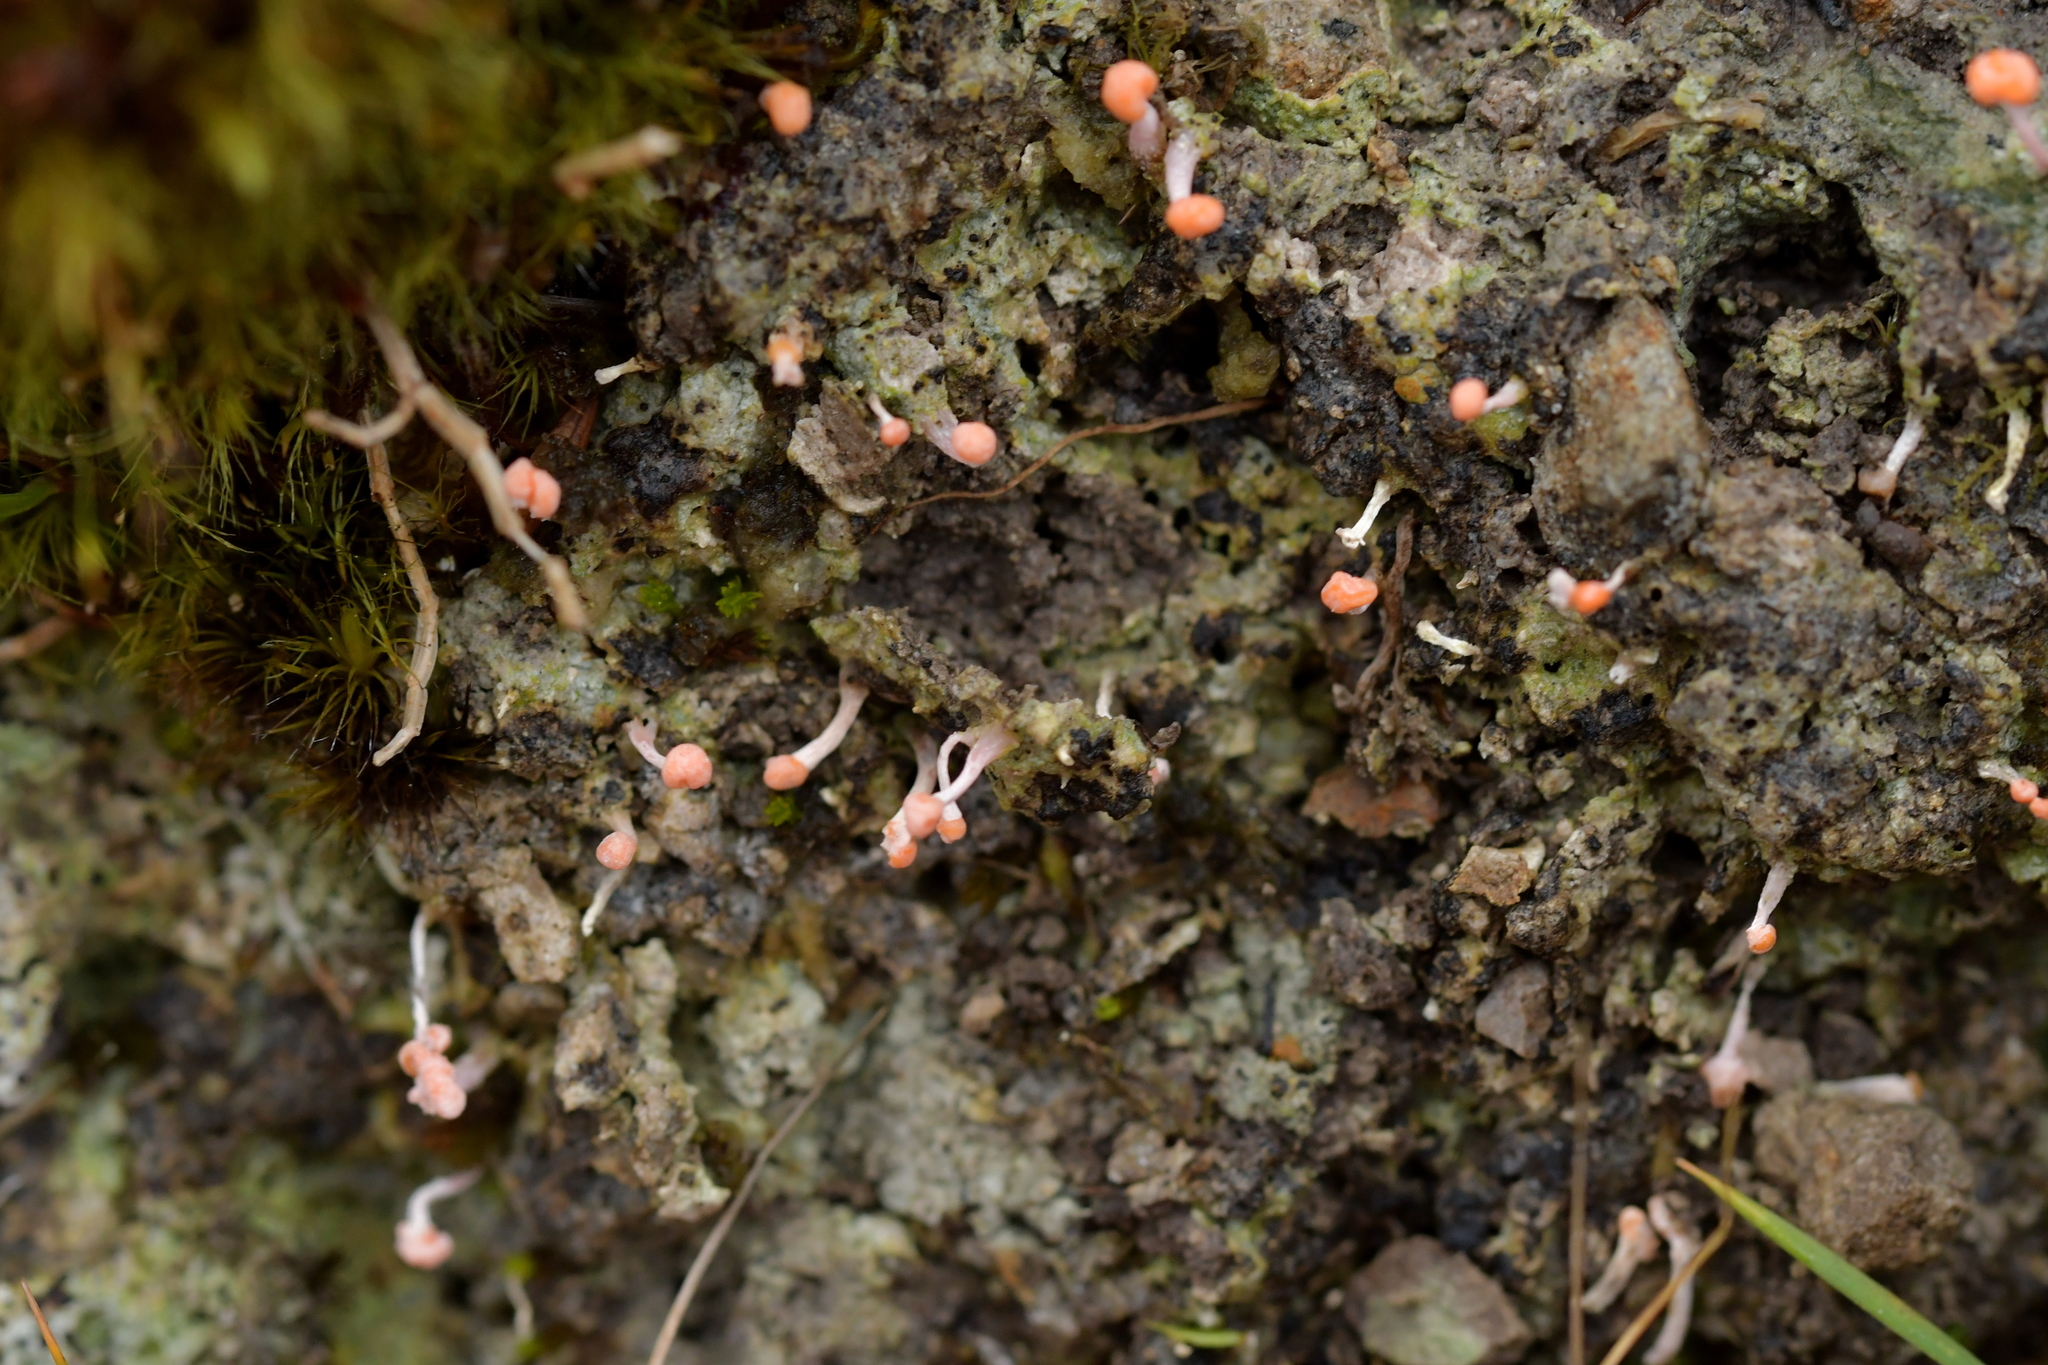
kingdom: Fungi
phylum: Ascomycota
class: Lecanoromycetes
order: Pertusariales
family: Icmadophilaceae
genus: Dibaeis
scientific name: Dibaeis arcuata
